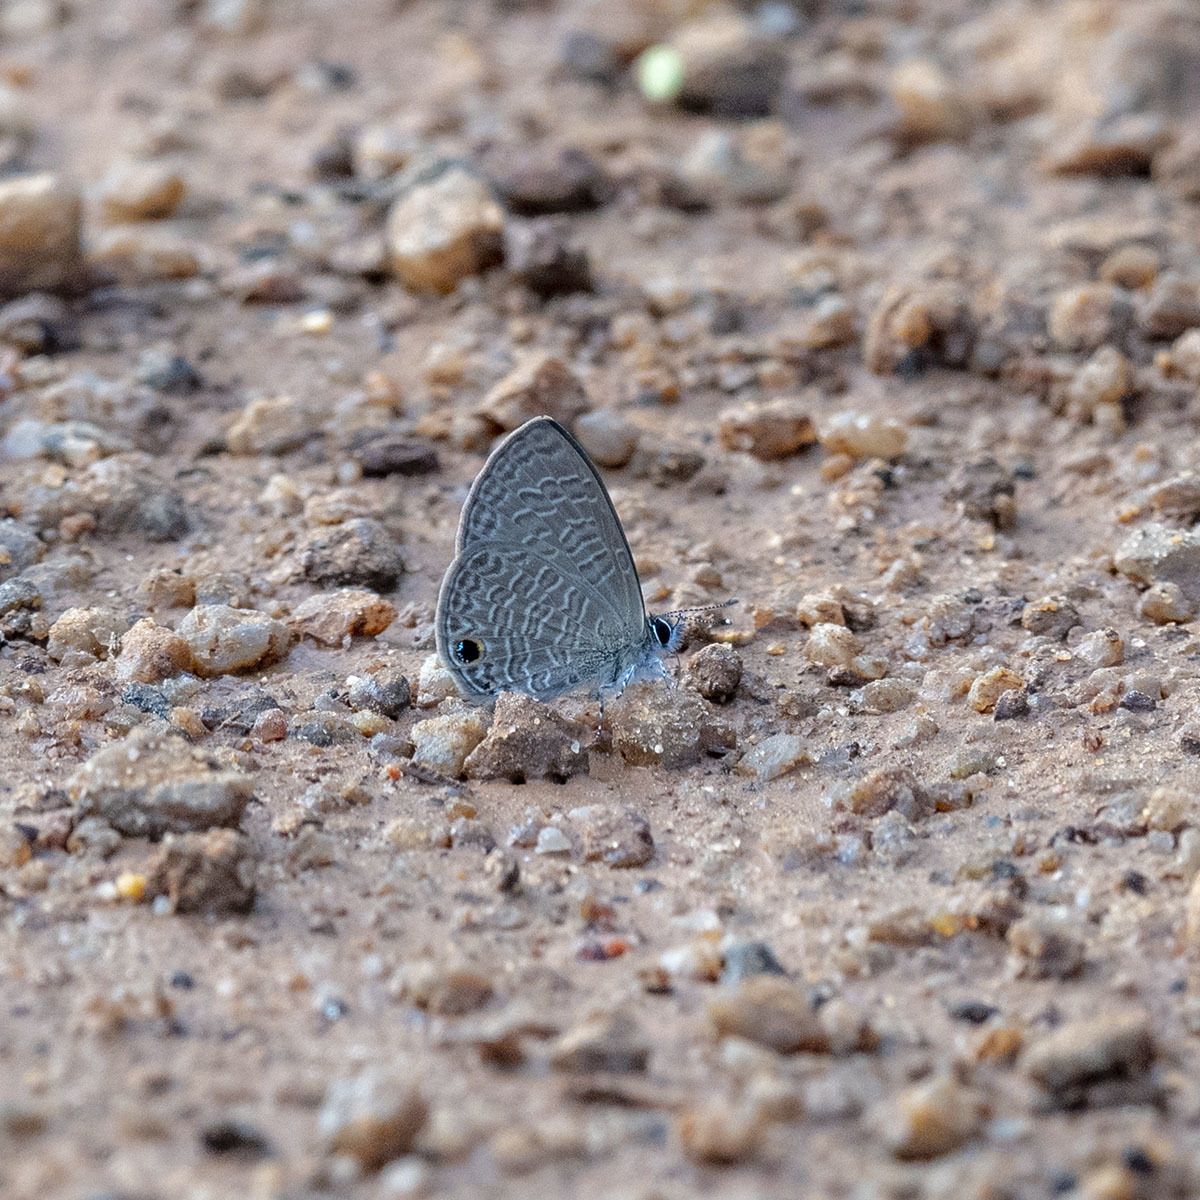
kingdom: Animalia
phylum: Arthropoda
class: Insecta
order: Lepidoptera
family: Lycaenidae
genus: Prosotas
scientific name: Prosotas dubiosa
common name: Tailless lineblue
